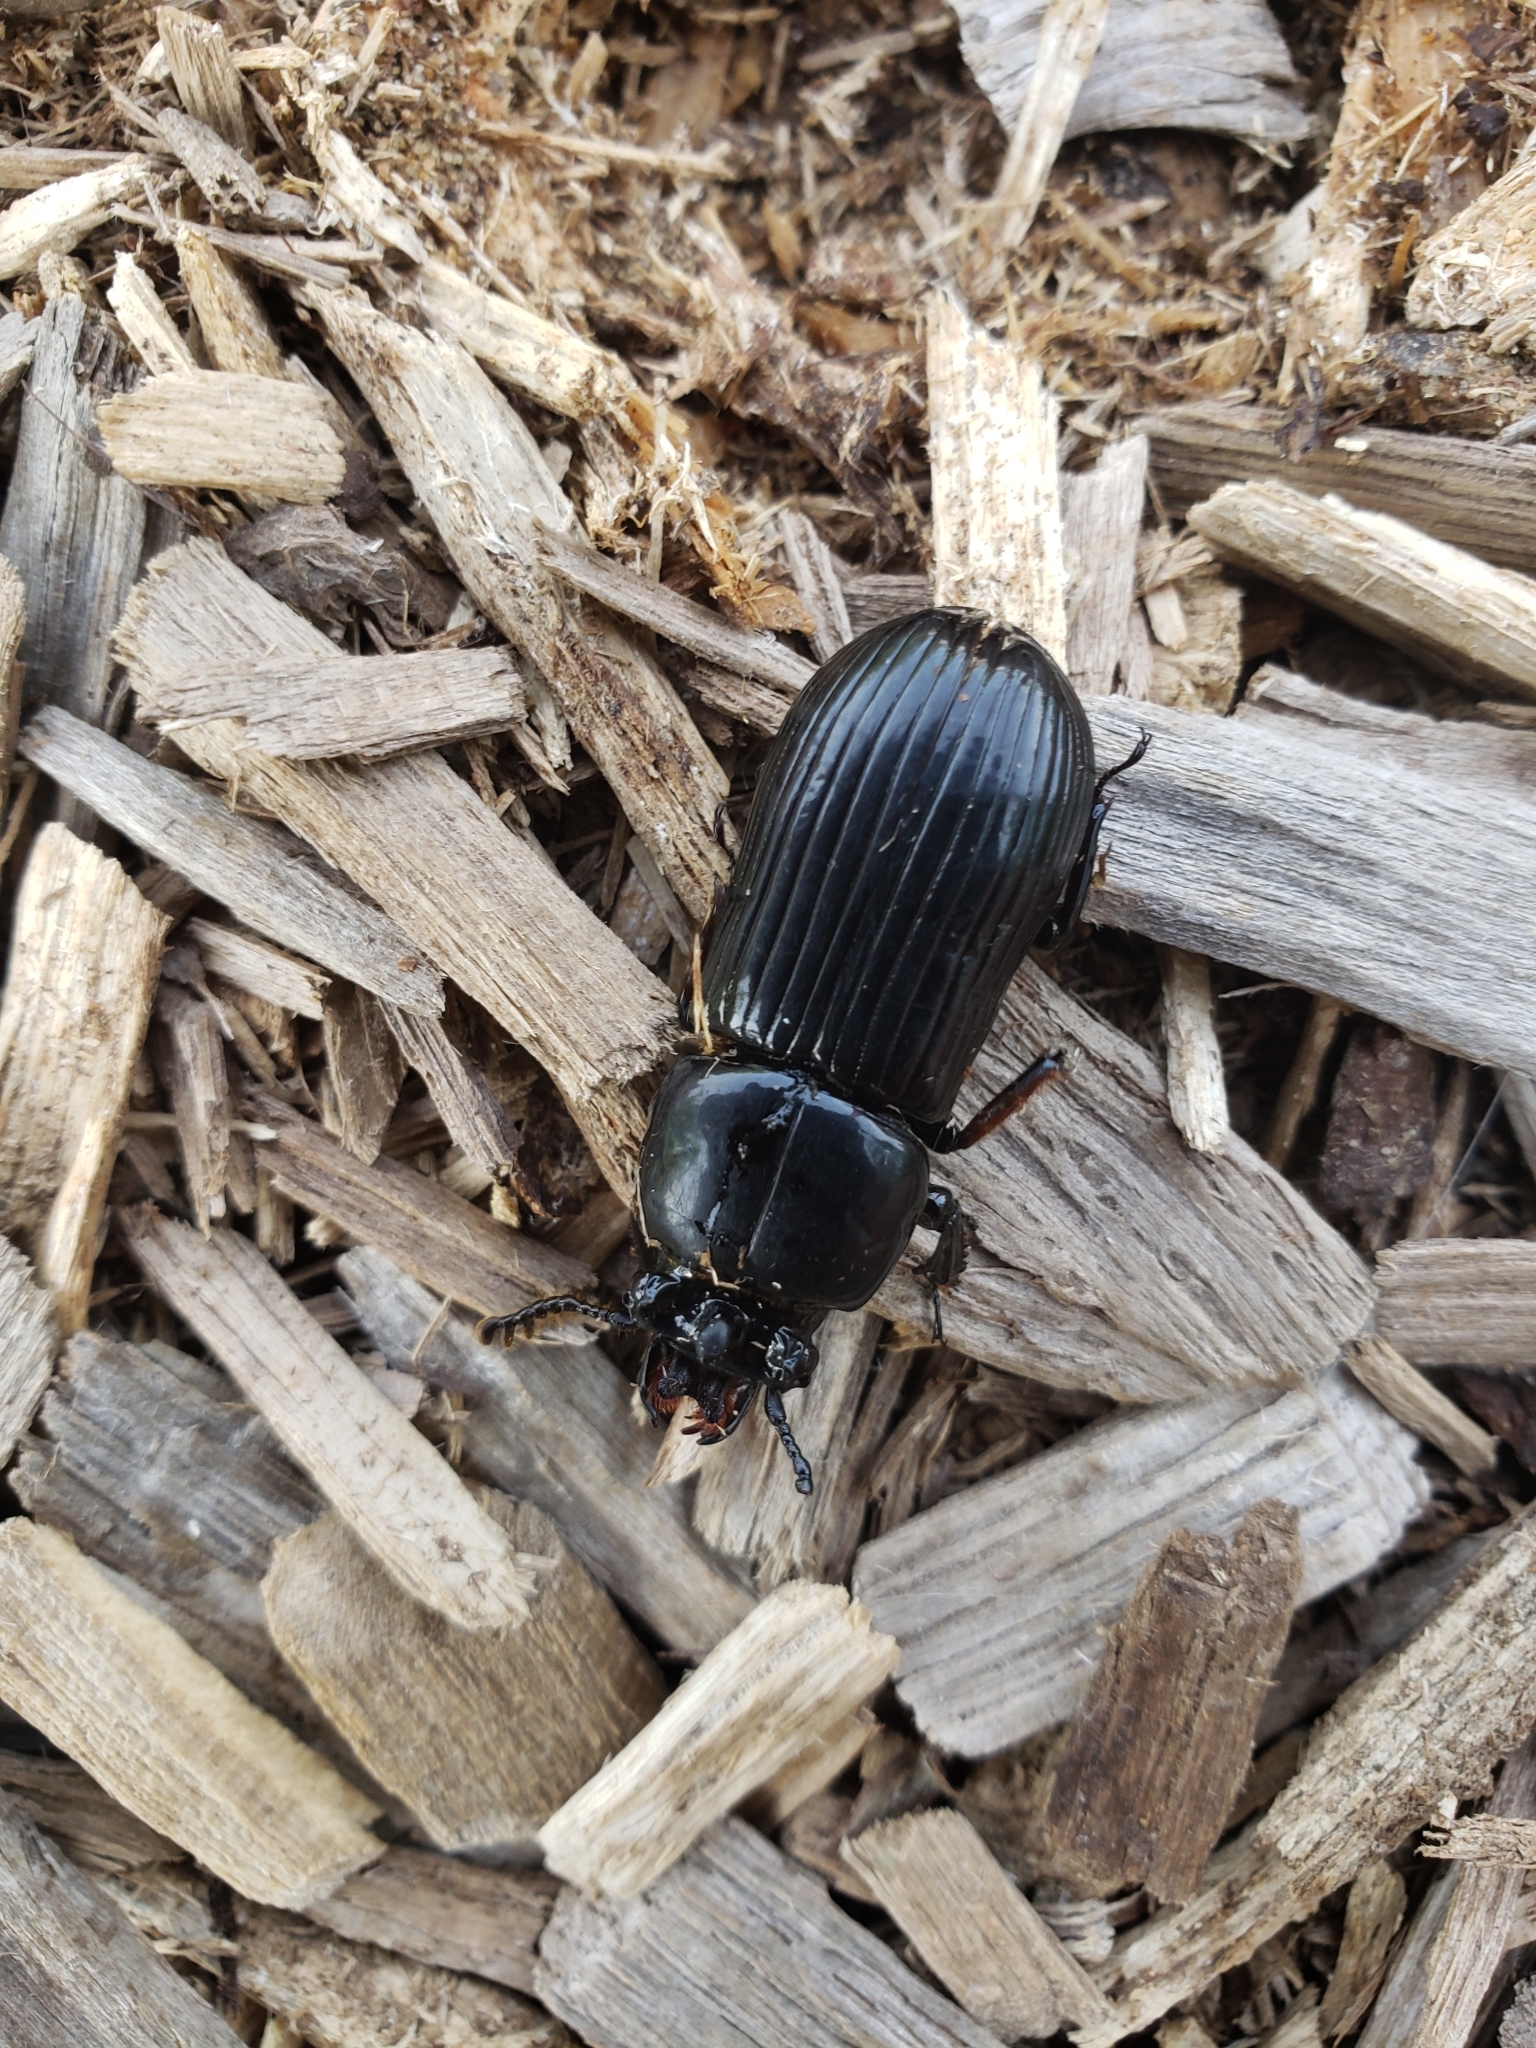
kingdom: Animalia
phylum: Arthropoda
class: Insecta
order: Coleoptera
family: Passalidae
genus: Odontotaenius
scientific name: Odontotaenius disjunctus
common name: Patent leather beetle
